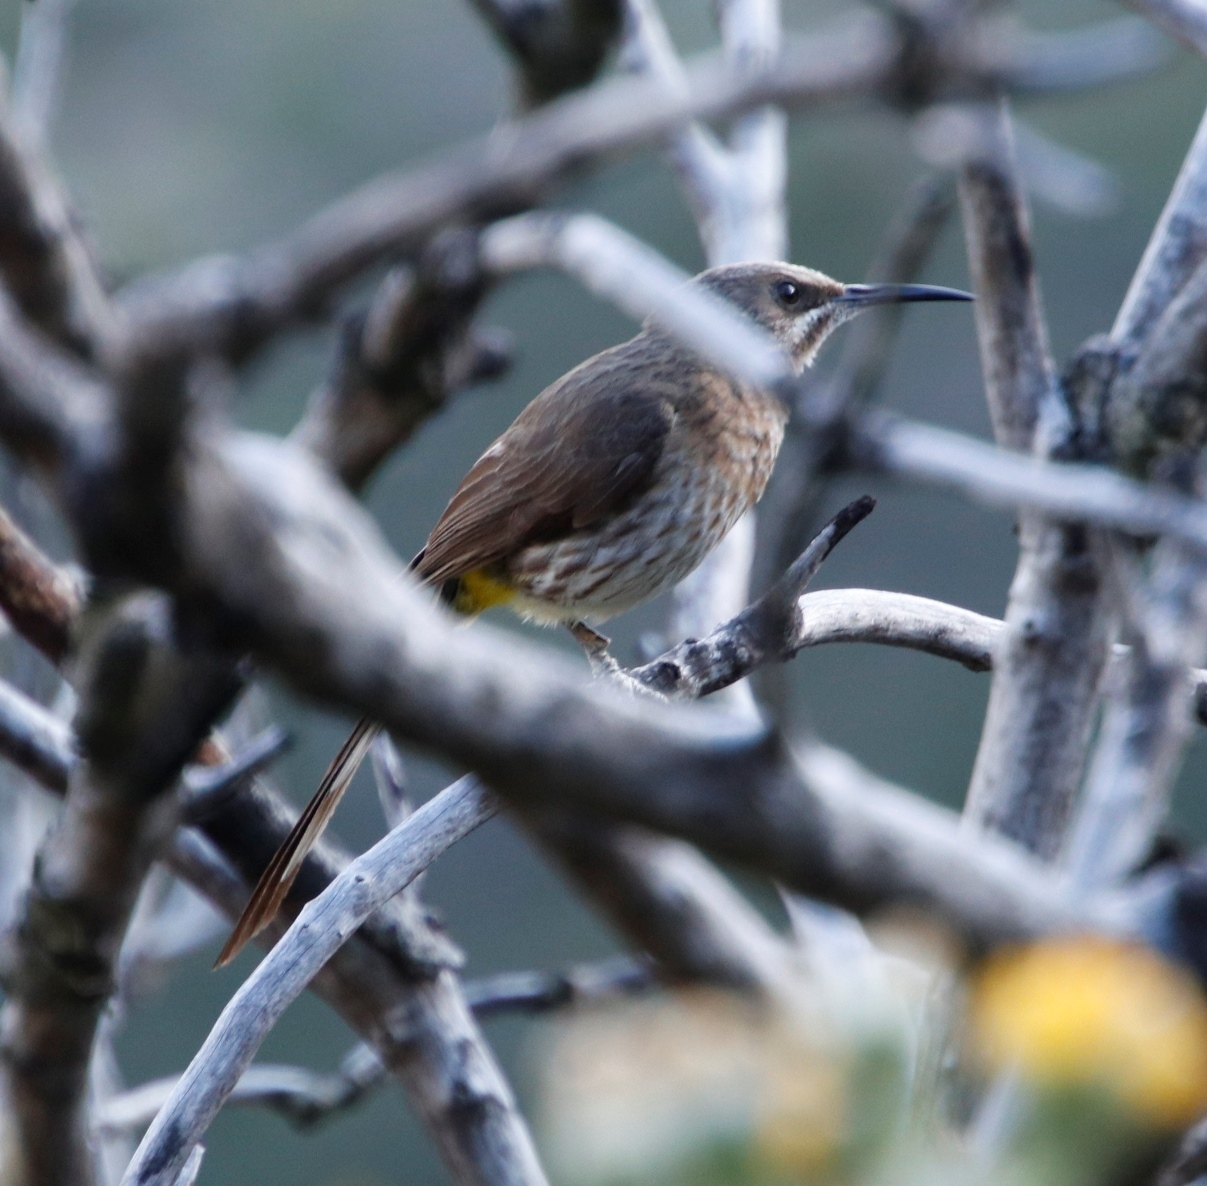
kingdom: Animalia
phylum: Chordata
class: Aves
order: Passeriformes
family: Promeropidae
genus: Promerops
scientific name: Promerops cafer
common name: Cape sugarbird
